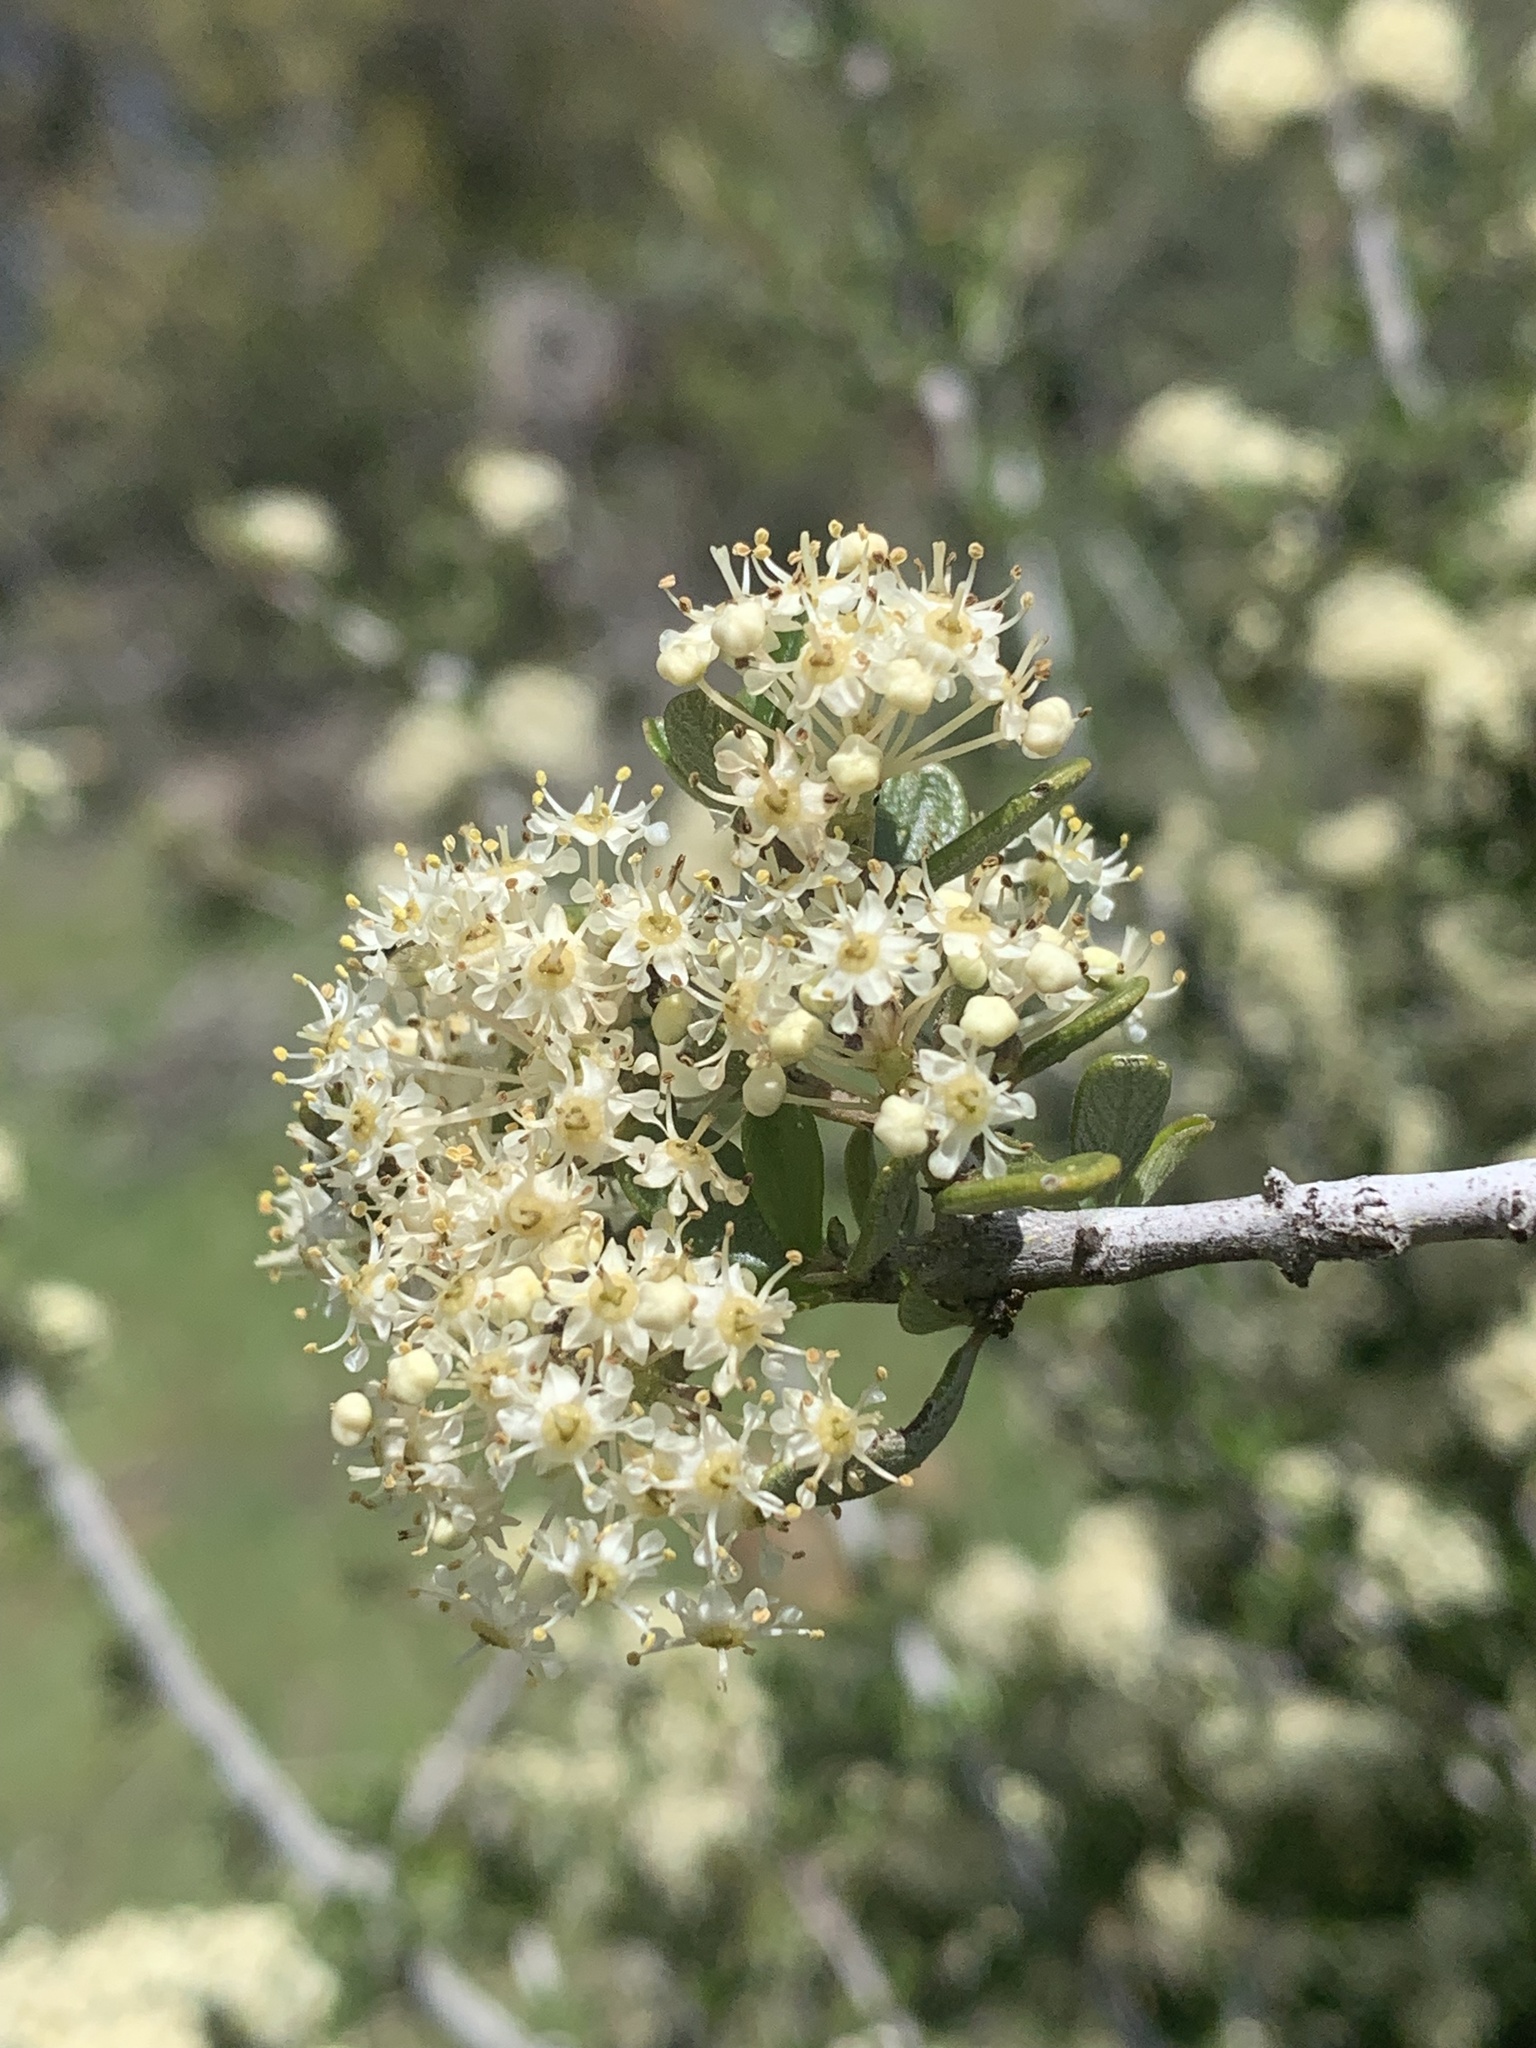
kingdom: Plantae
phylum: Tracheophyta
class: Magnoliopsida
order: Rosales
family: Rhamnaceae
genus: Ceanothus
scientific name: Ceanothus cuneatus
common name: Cuneate ceanothus
